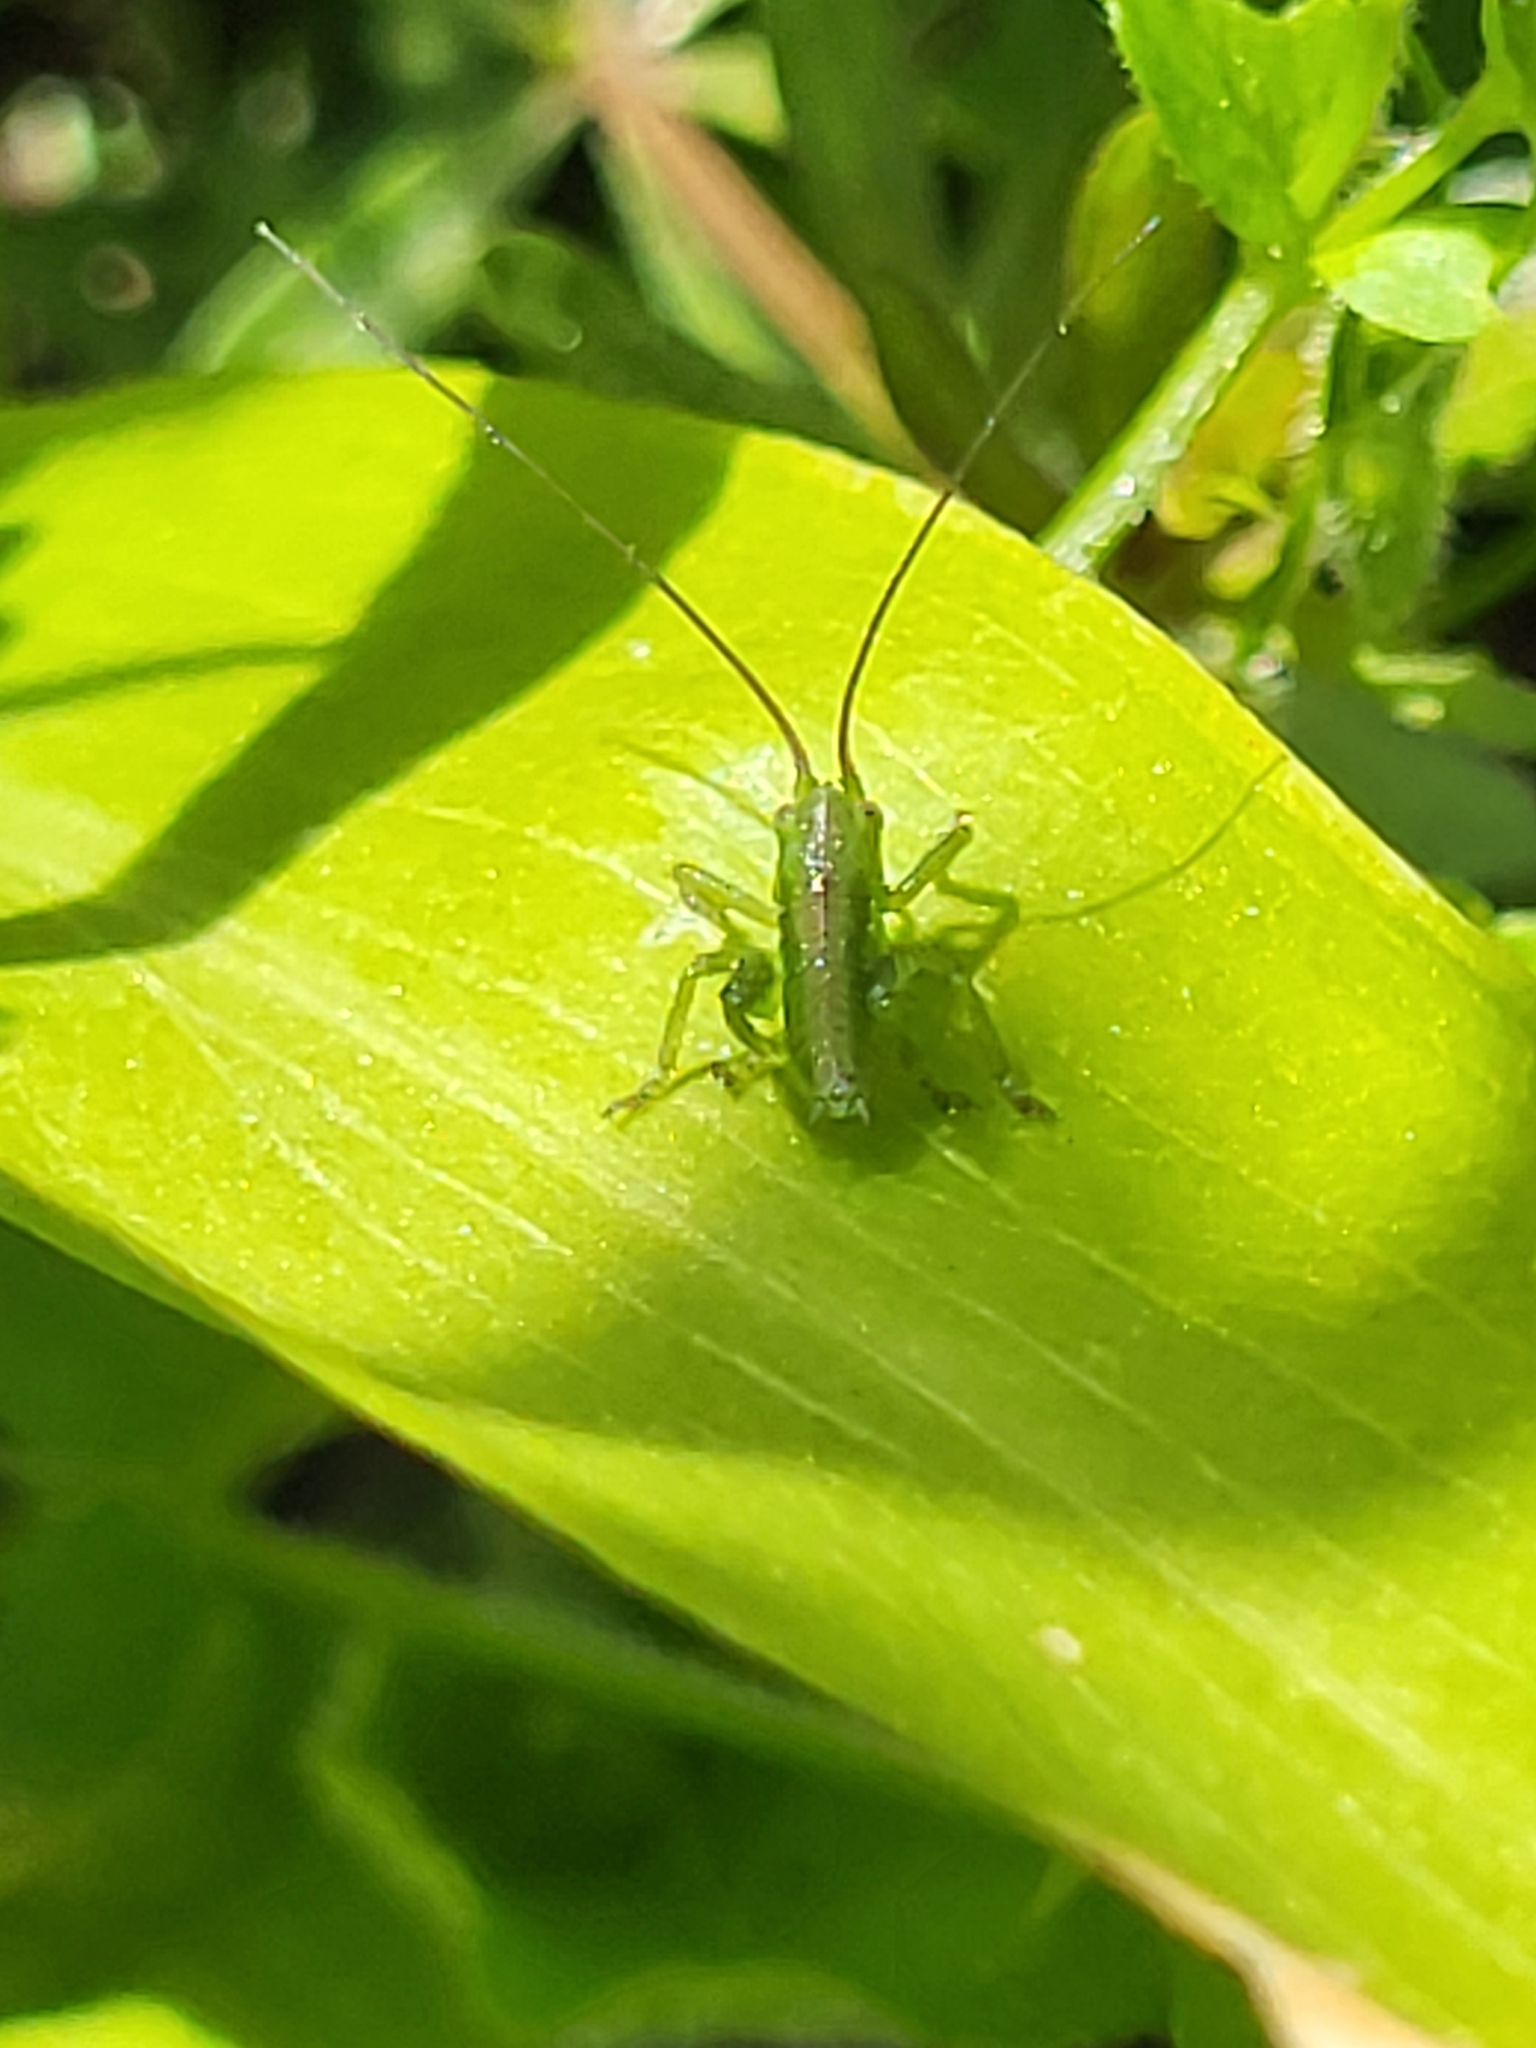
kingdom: Animalia
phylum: Arthropoda
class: Insecta
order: Orthoptera
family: Tettigoniidae
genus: Tettigonia
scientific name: Tettigonia viridissima
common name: Great green bush-cricket
